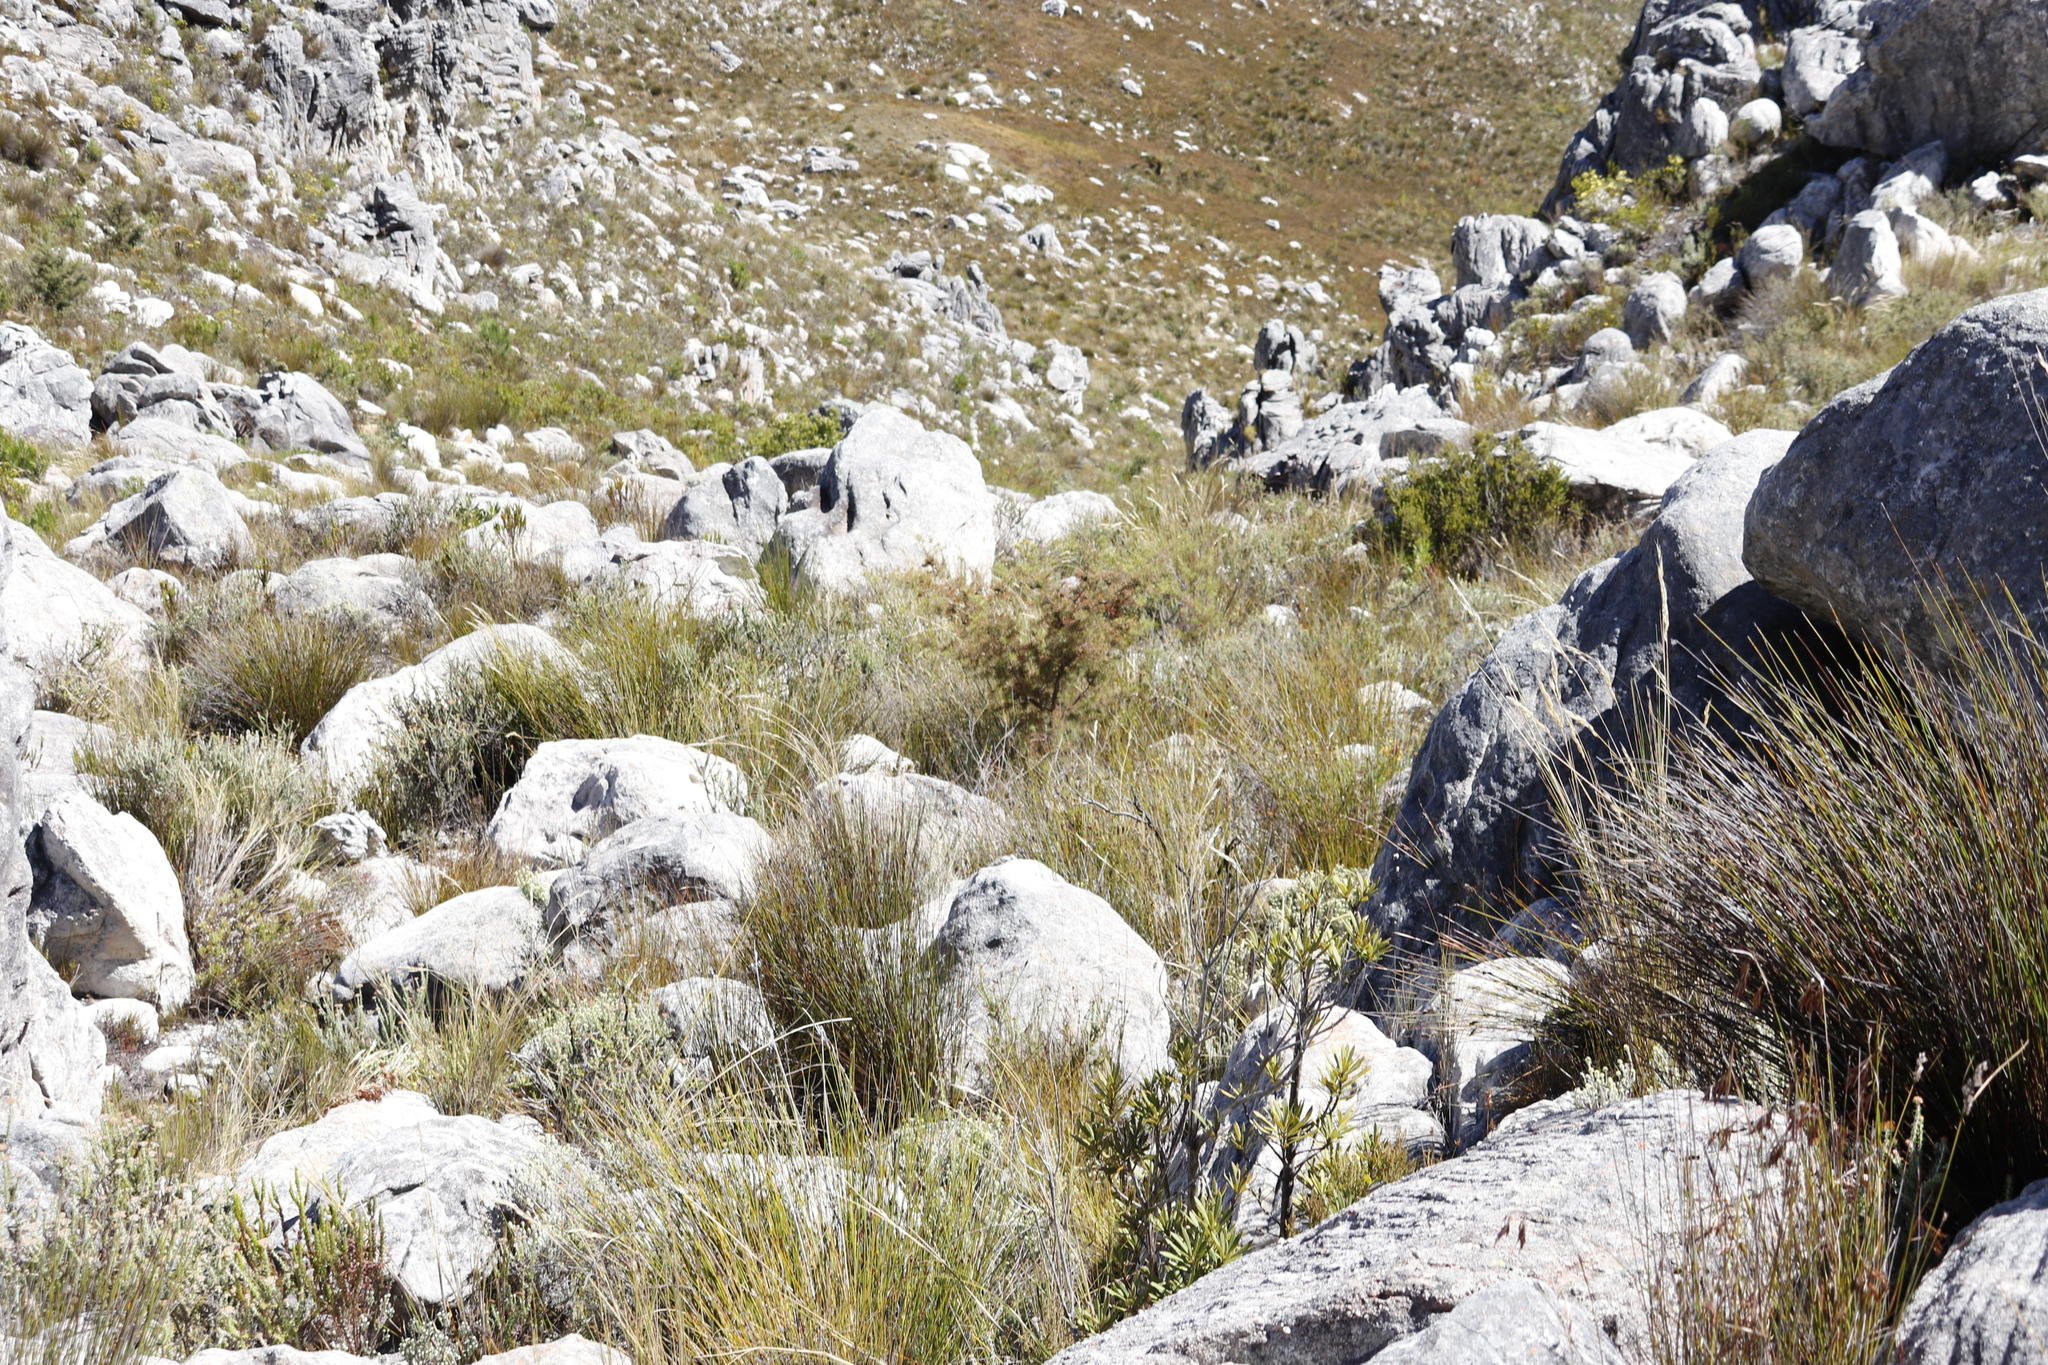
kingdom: Plantae
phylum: Tracheophyta
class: Magnoliopsida
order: Proteales
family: Proteaceae
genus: Hakea
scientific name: Hakea sericea
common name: Needle bush
